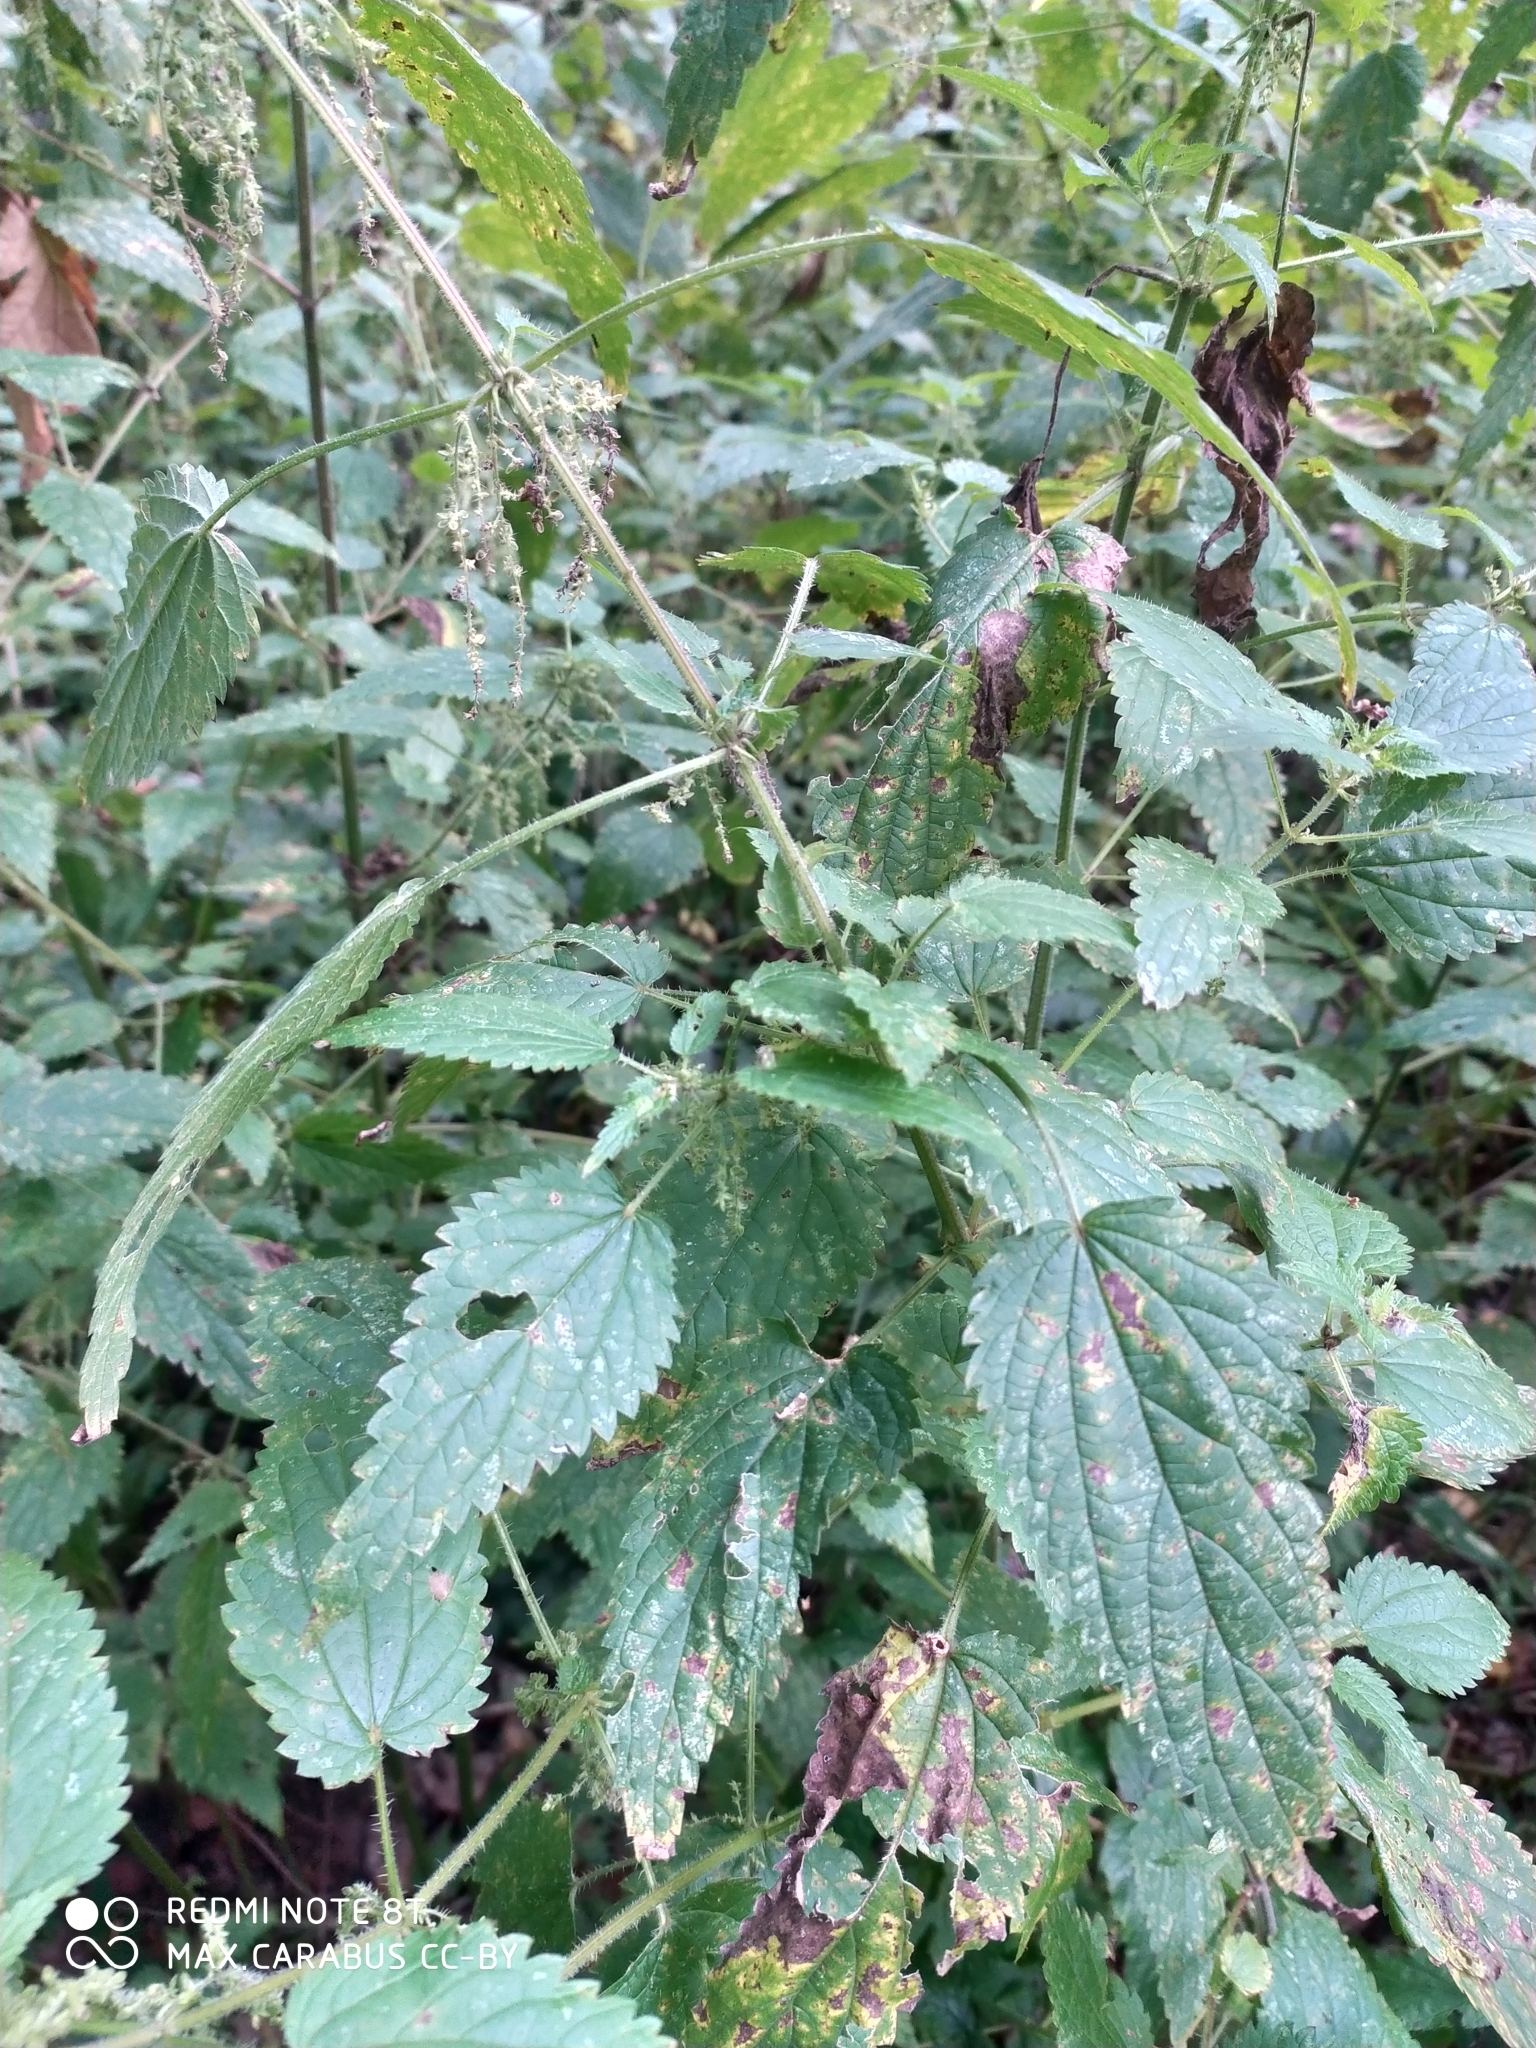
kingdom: Plantae
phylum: Tracheophyta
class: Magnoliopsida
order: Rosales
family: Urticaceae
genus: Urtica
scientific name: Urtica dioica
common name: Common nettle
